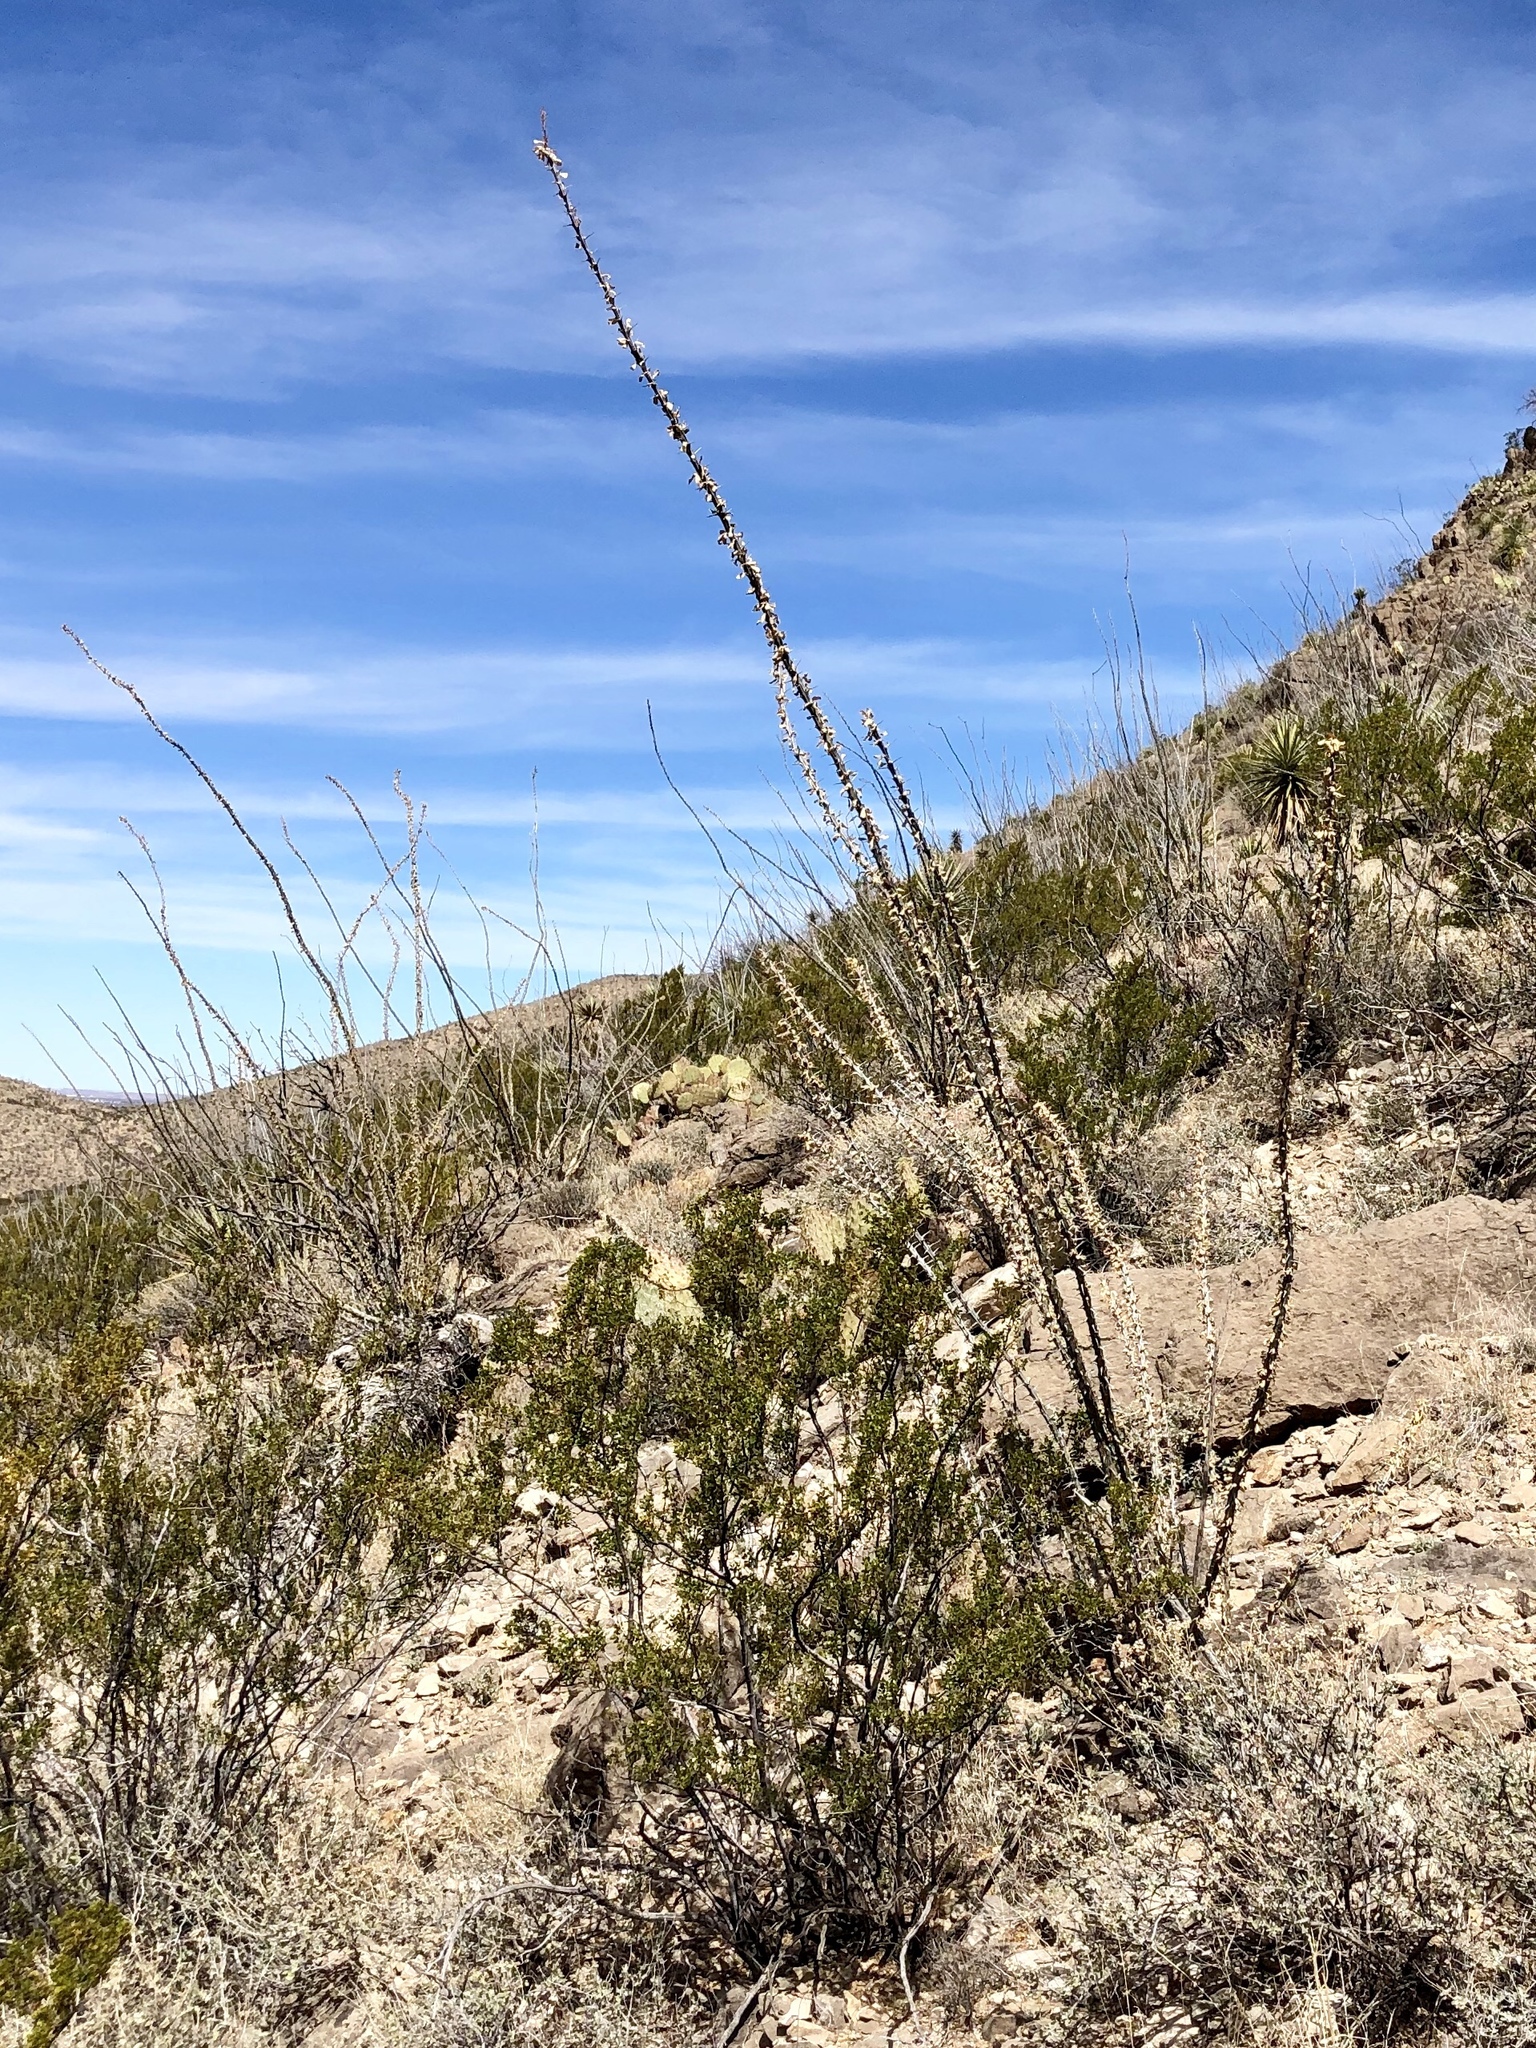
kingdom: Plantae
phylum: Tracheophyta
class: Magnoliopsida
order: Ericales
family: Fouquieriaceae
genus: Fouquieria
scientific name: Fouquieria splendens
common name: Vine-cactus
